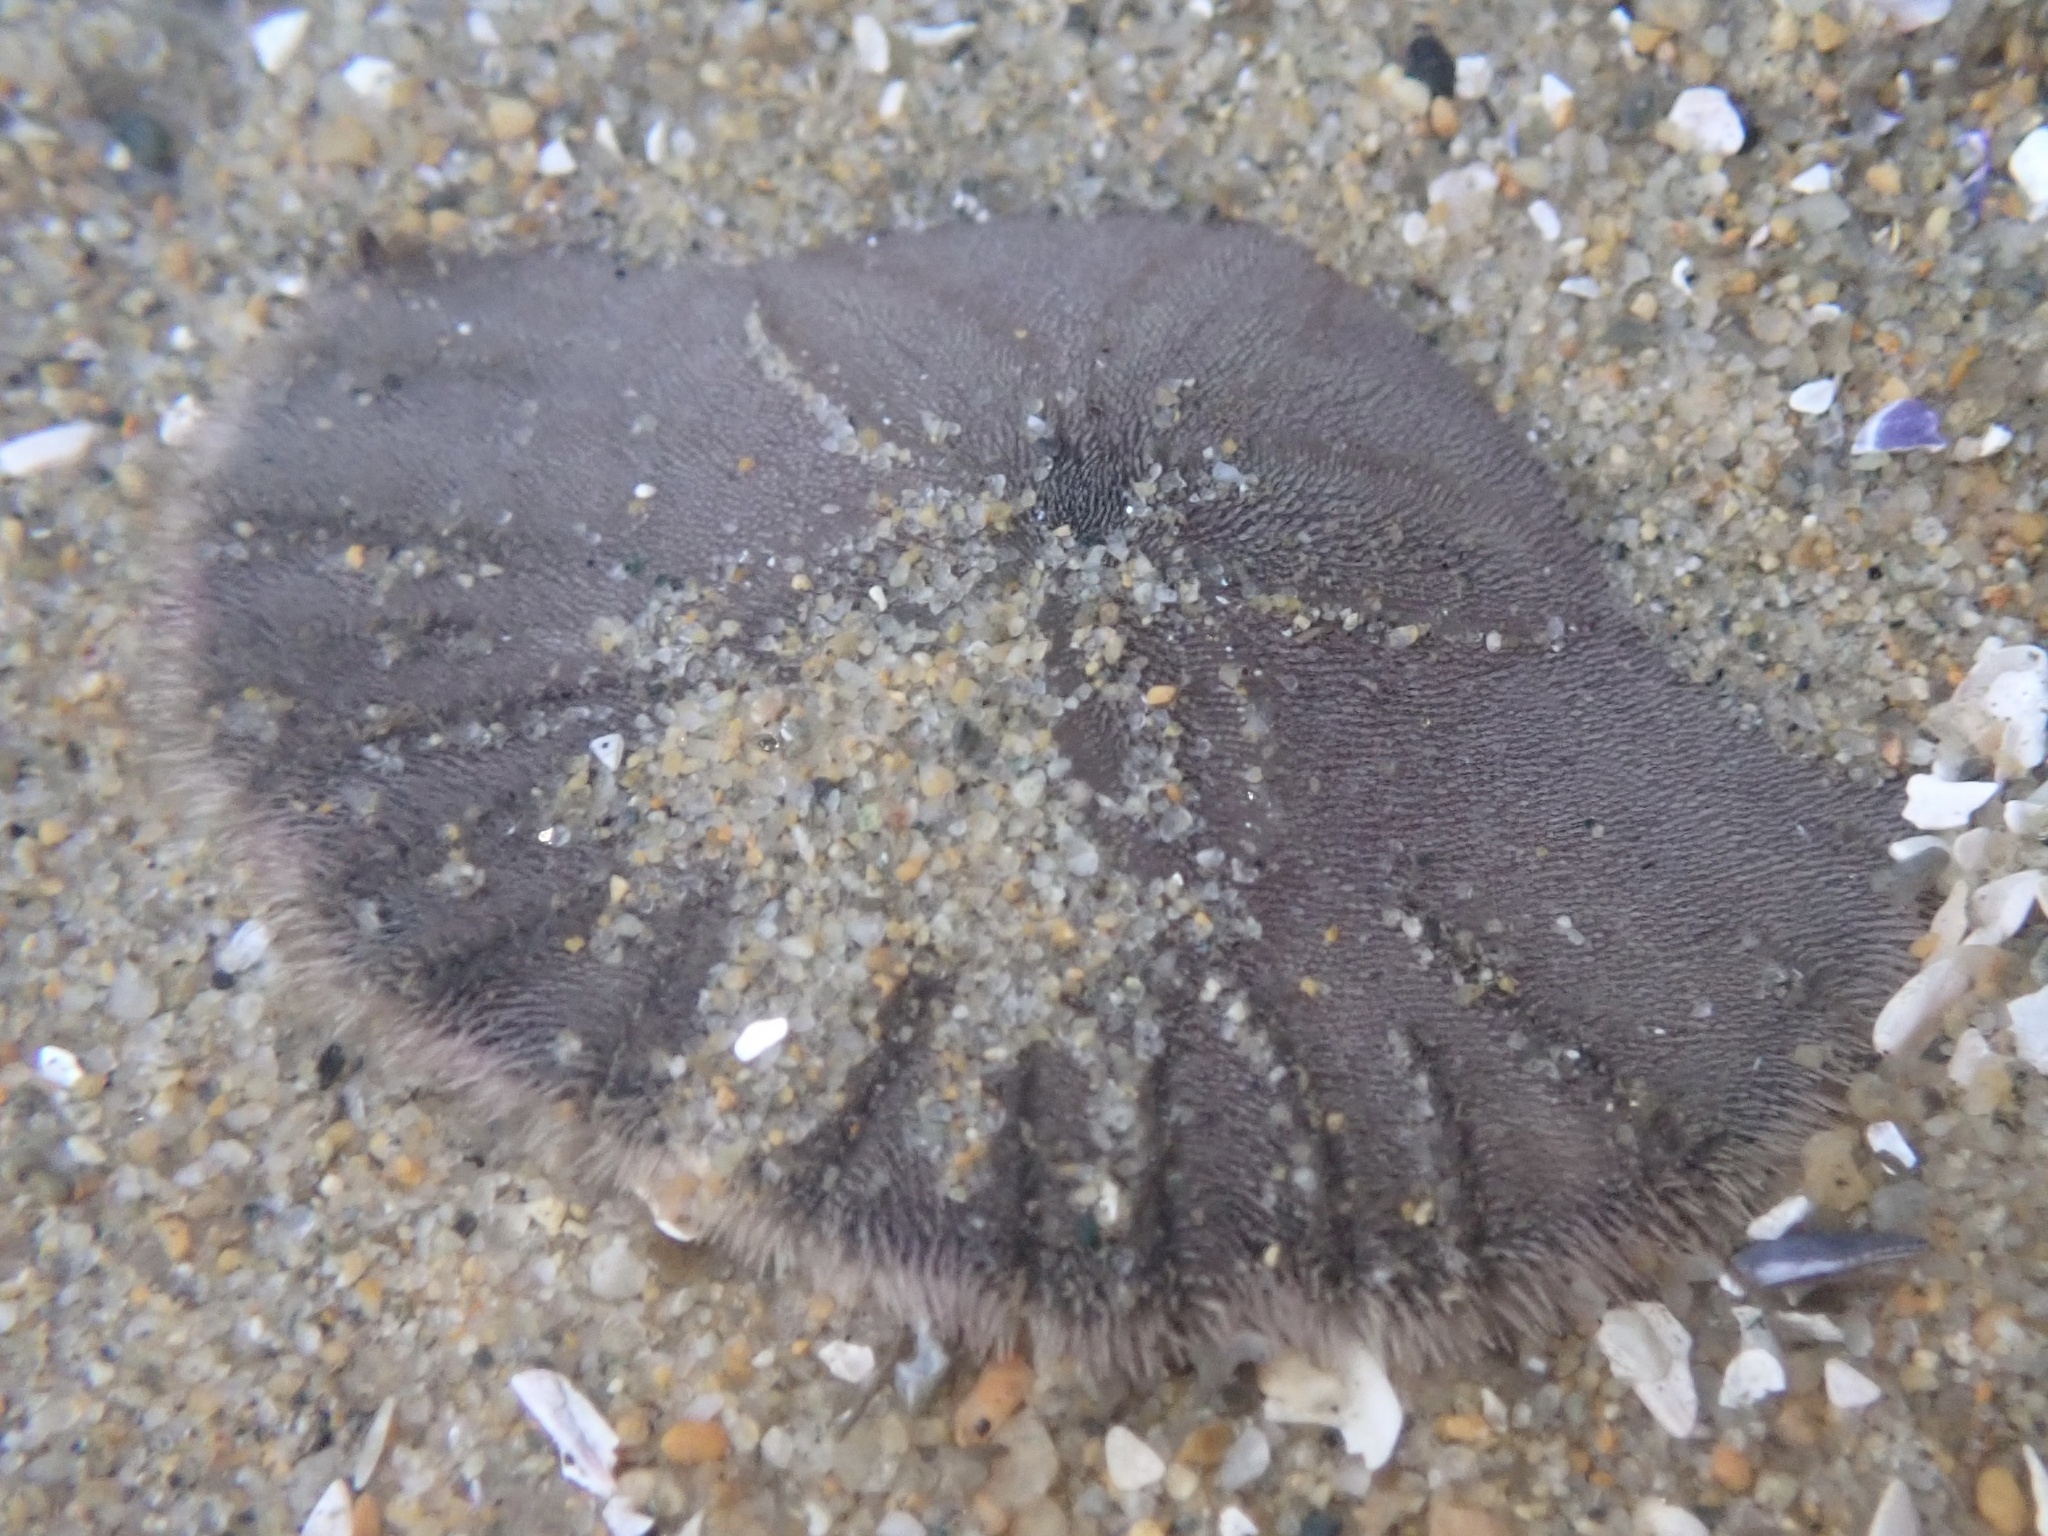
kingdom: Animalia
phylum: Echinodermata
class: Echinoidea
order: Echinolampadacea
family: Dendrasteridae
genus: Dendraster
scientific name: Dendraster excentricus
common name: Eccentric sand dollar sea urchin
